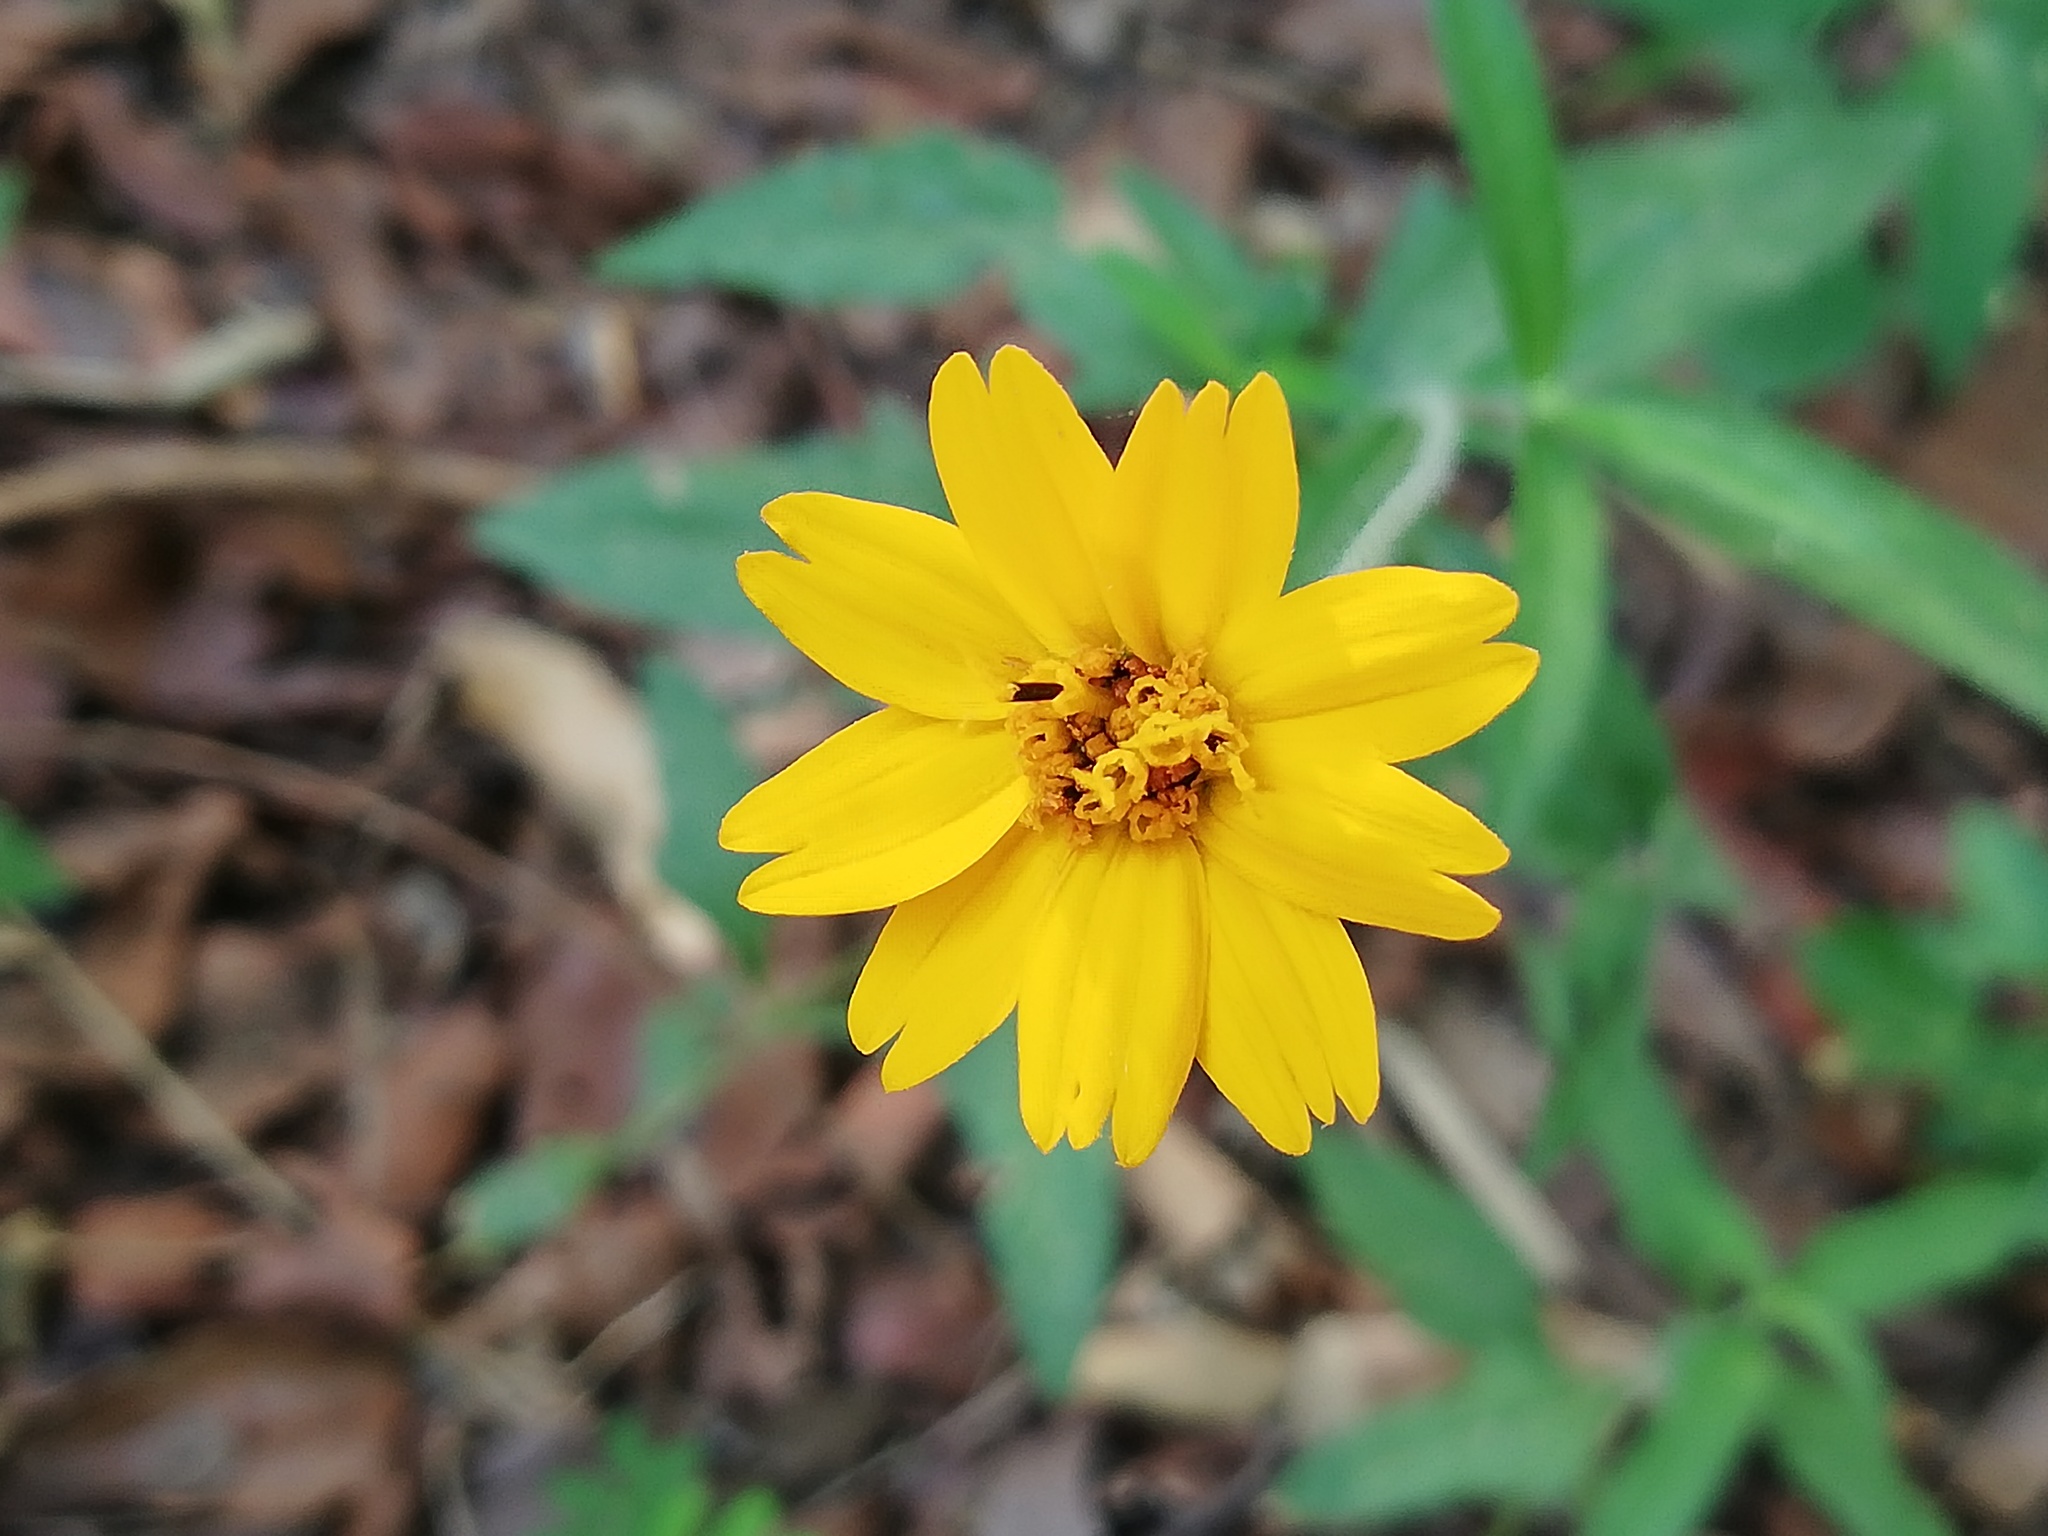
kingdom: Plantae
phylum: Tracheophyta
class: Magnoliopsida
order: Asterales
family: Asteraceae
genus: Wedelia
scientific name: Wedelia acapulcensis
